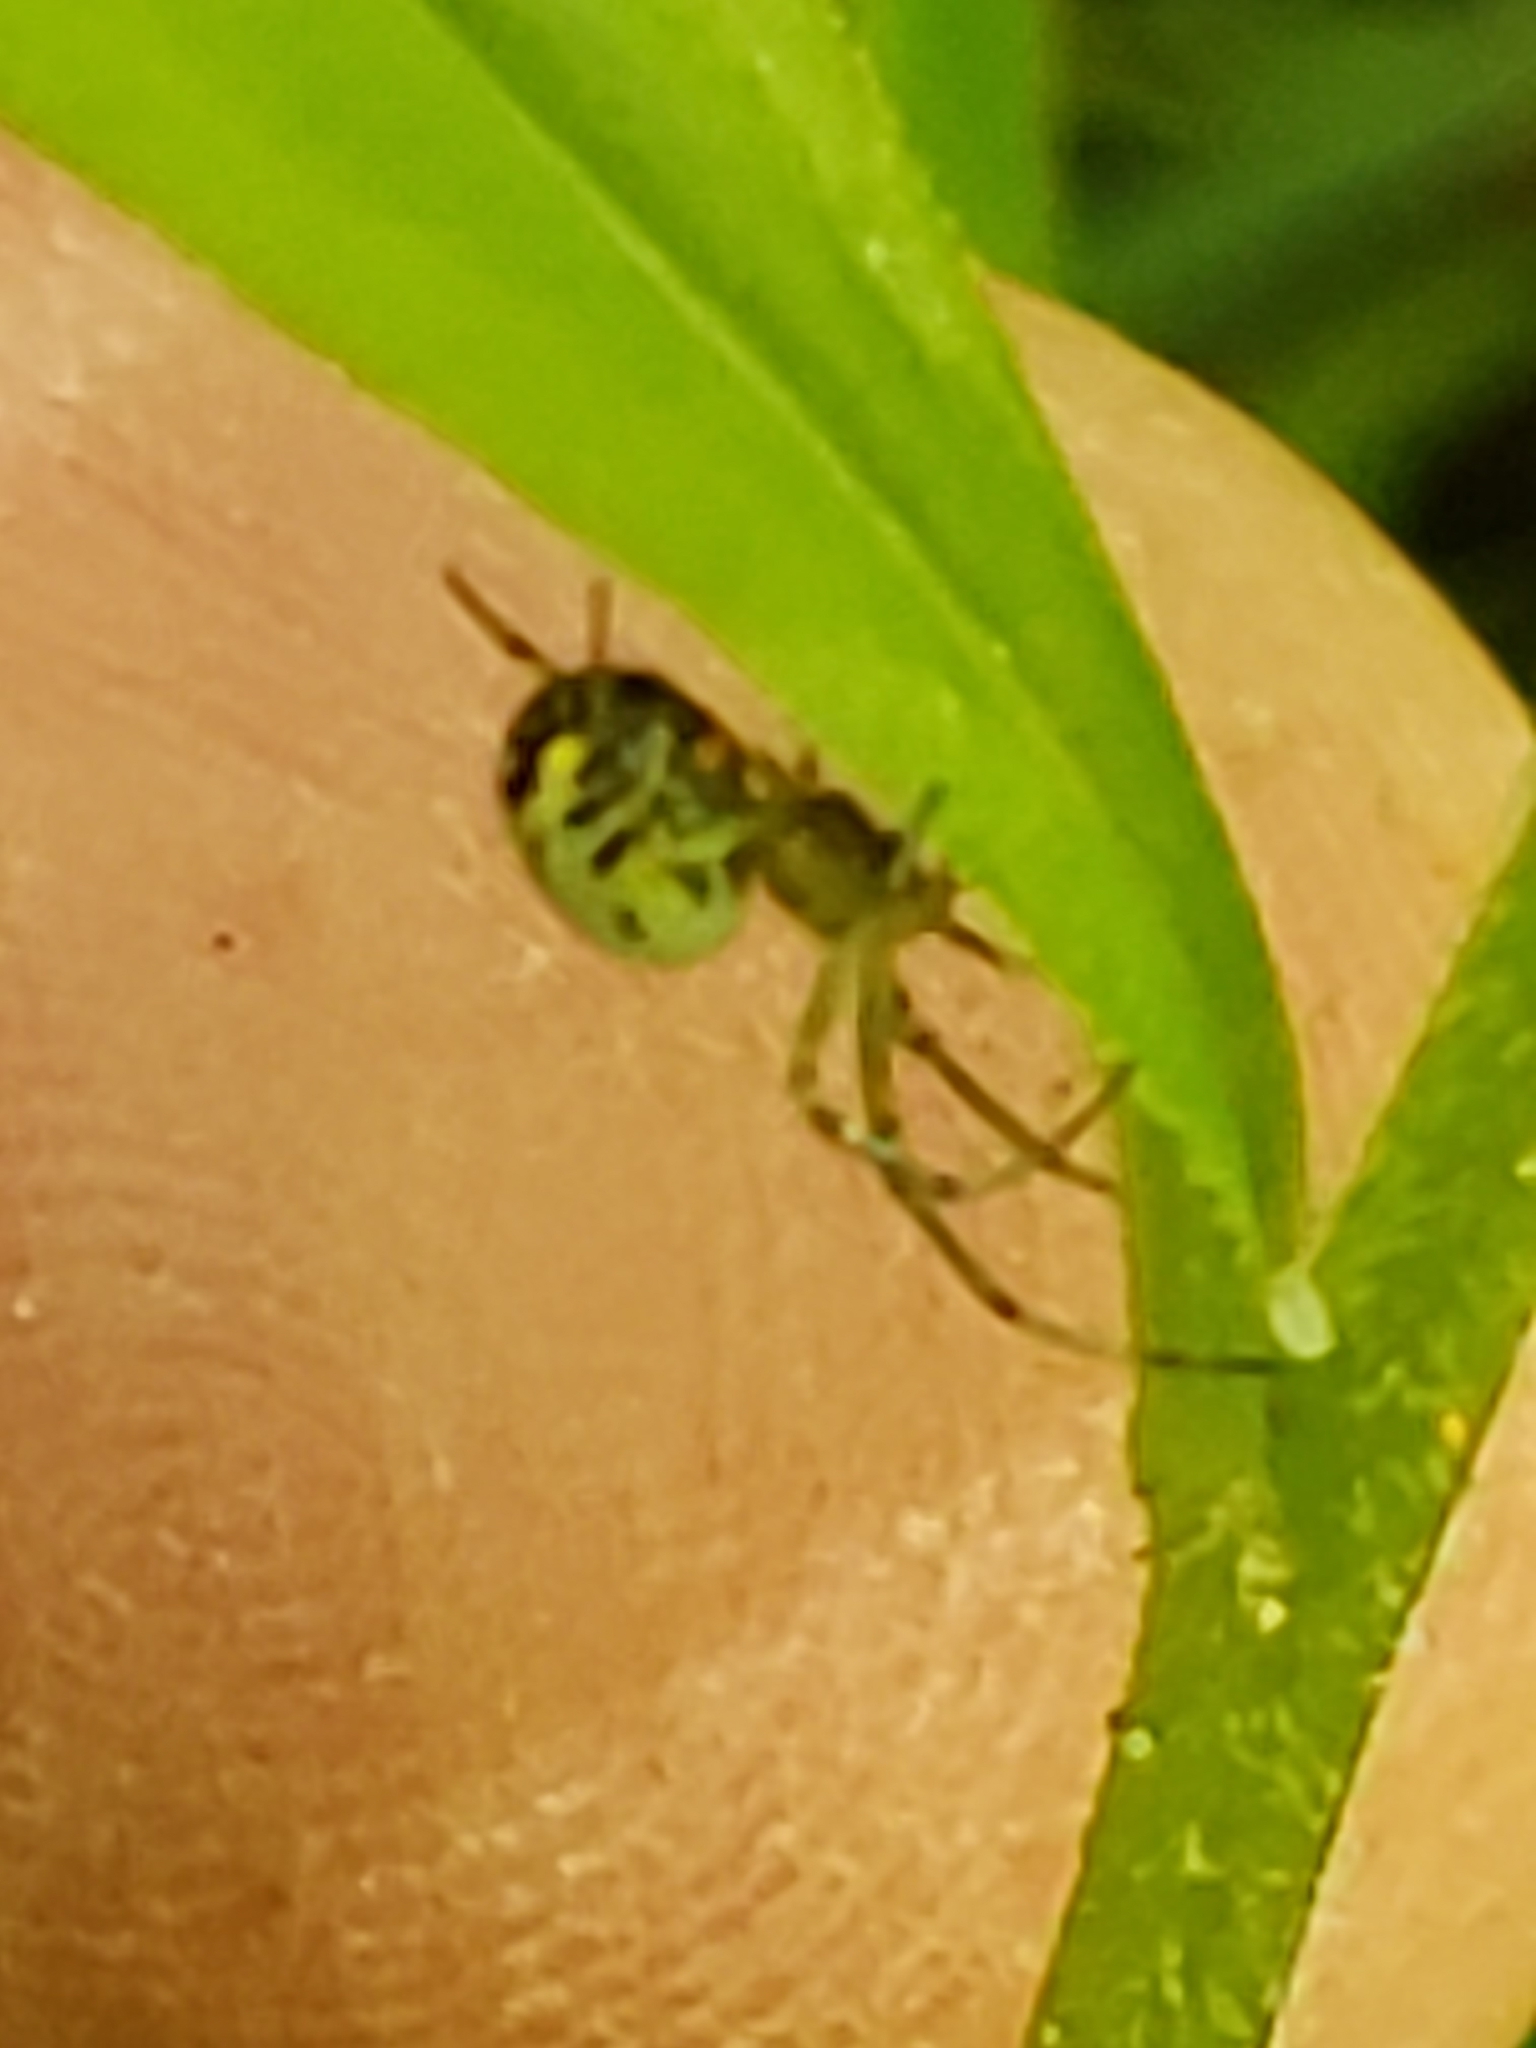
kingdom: Animalia
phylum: Arthropoda
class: Arachnida
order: Araneae
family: Tetragnathidae
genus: Leucauge
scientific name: Leucauge venusta
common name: Longjawed orb weavers
